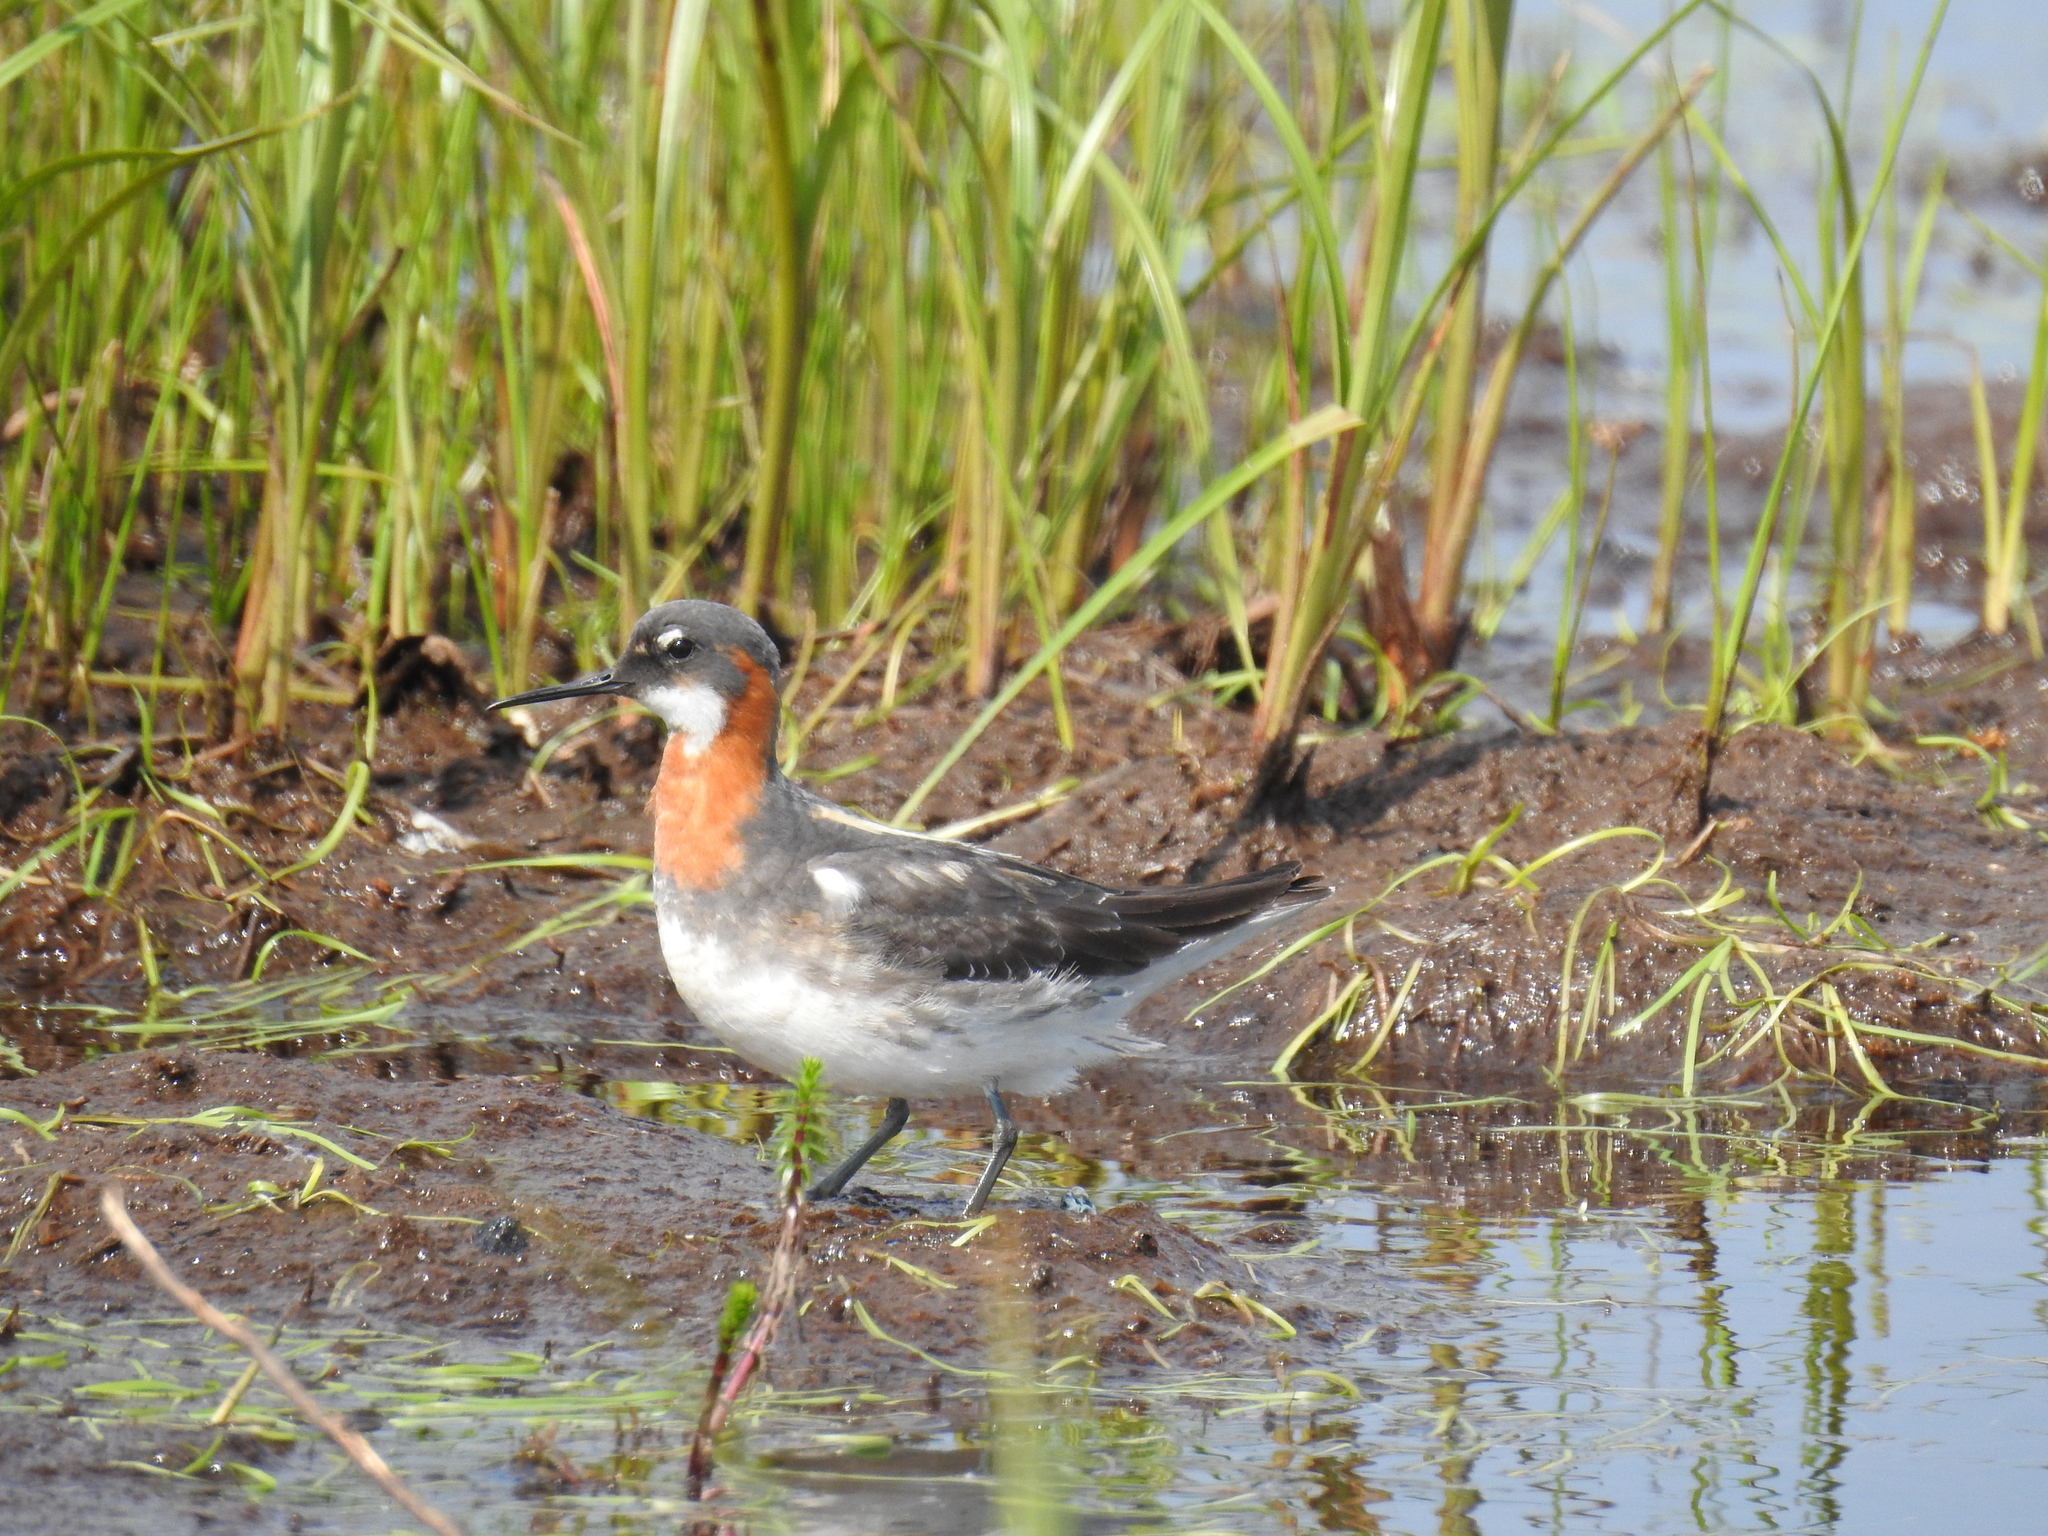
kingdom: Animalia
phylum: Chordata
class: Aves
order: Charadriiformes
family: Scolopacidae
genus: Phalaropus
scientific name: Phalaropus lobatus
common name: Red-necked phalarope
